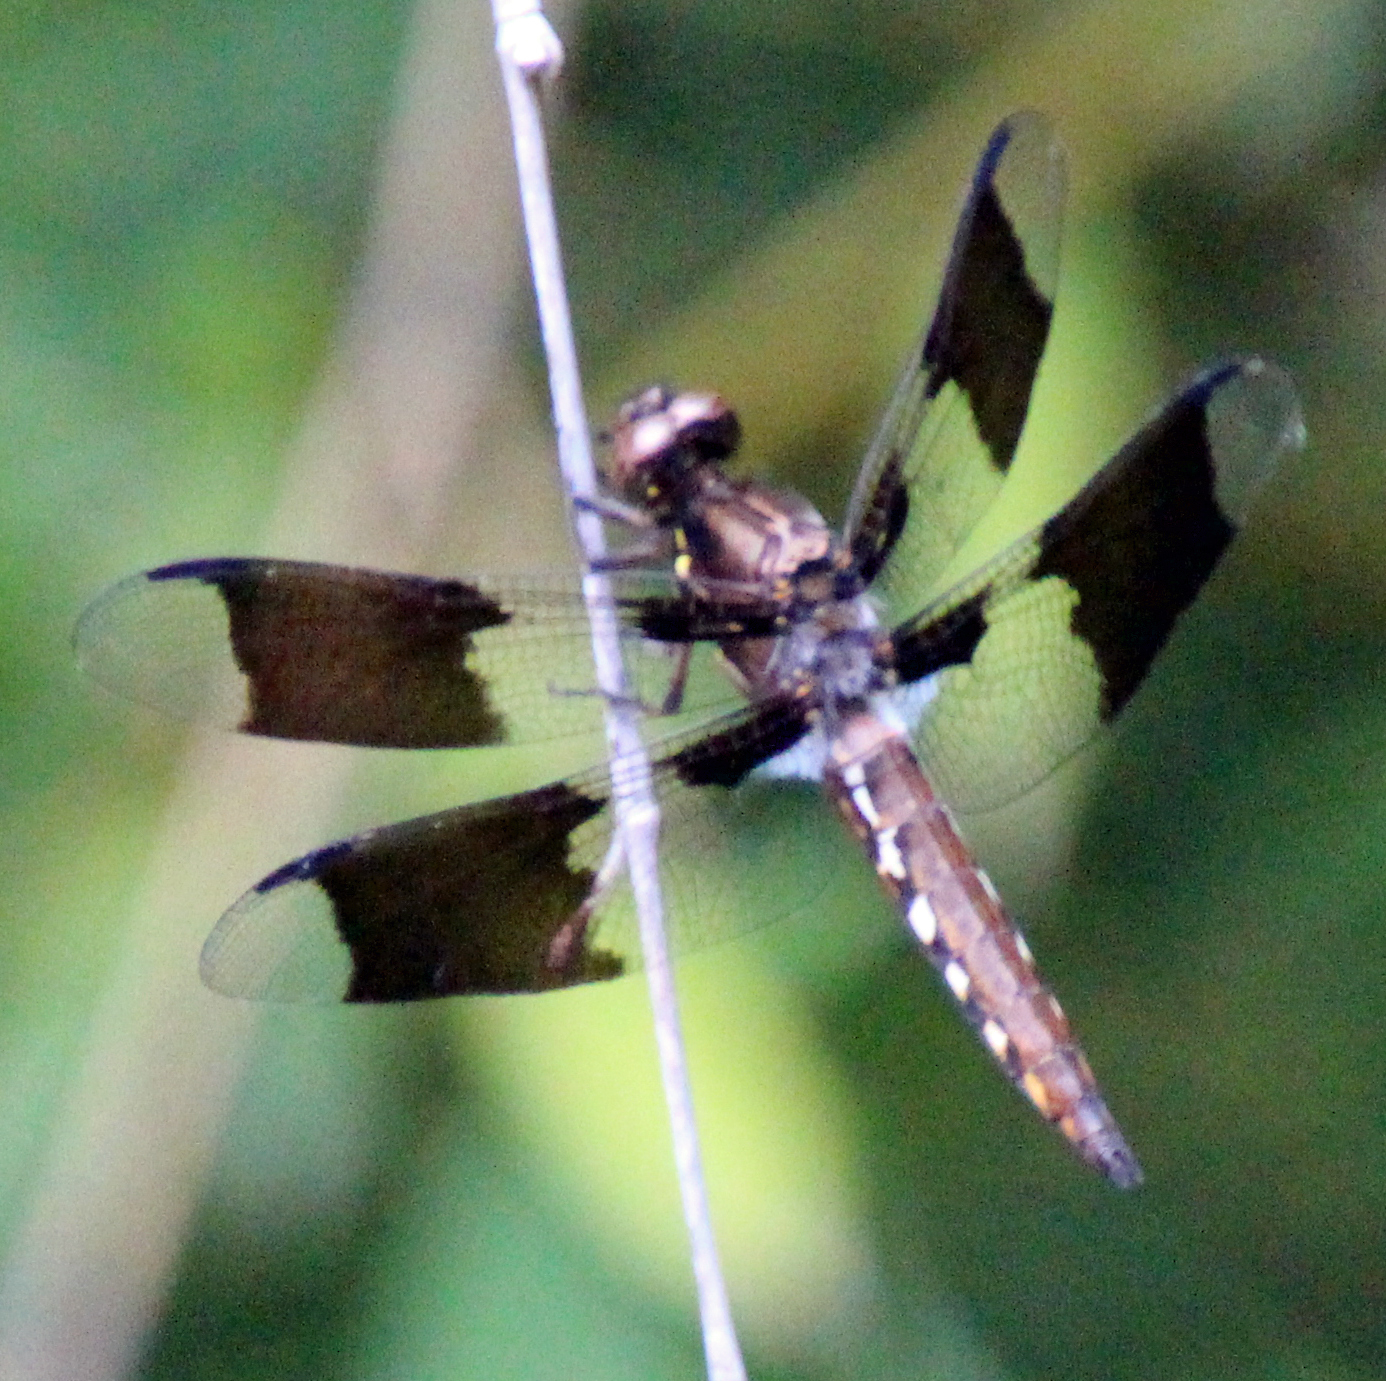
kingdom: Animalia
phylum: Arthropoda
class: Insecta
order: Odonata
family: Libellulidae
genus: Plathemis
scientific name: Plathemis lydia
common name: Common whitetail
